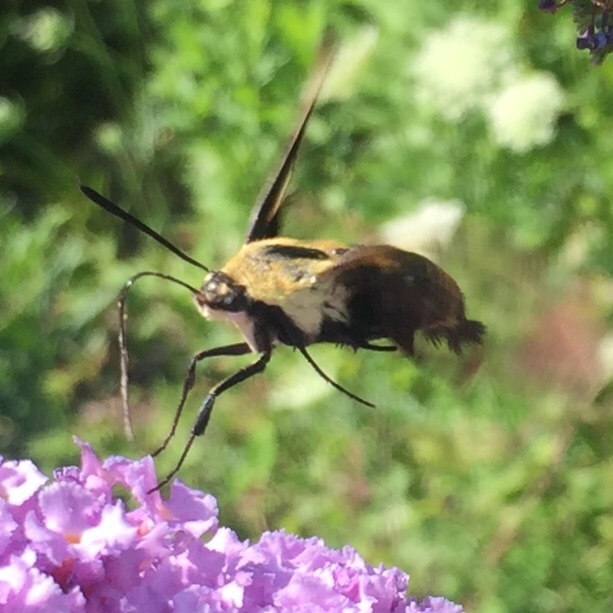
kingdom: Animalia
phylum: Arthropoda
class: Insecta
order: Lepidoptera
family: Sphingidae
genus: Hemaris
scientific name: Hemaris diffinis
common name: Bumblebee moth
